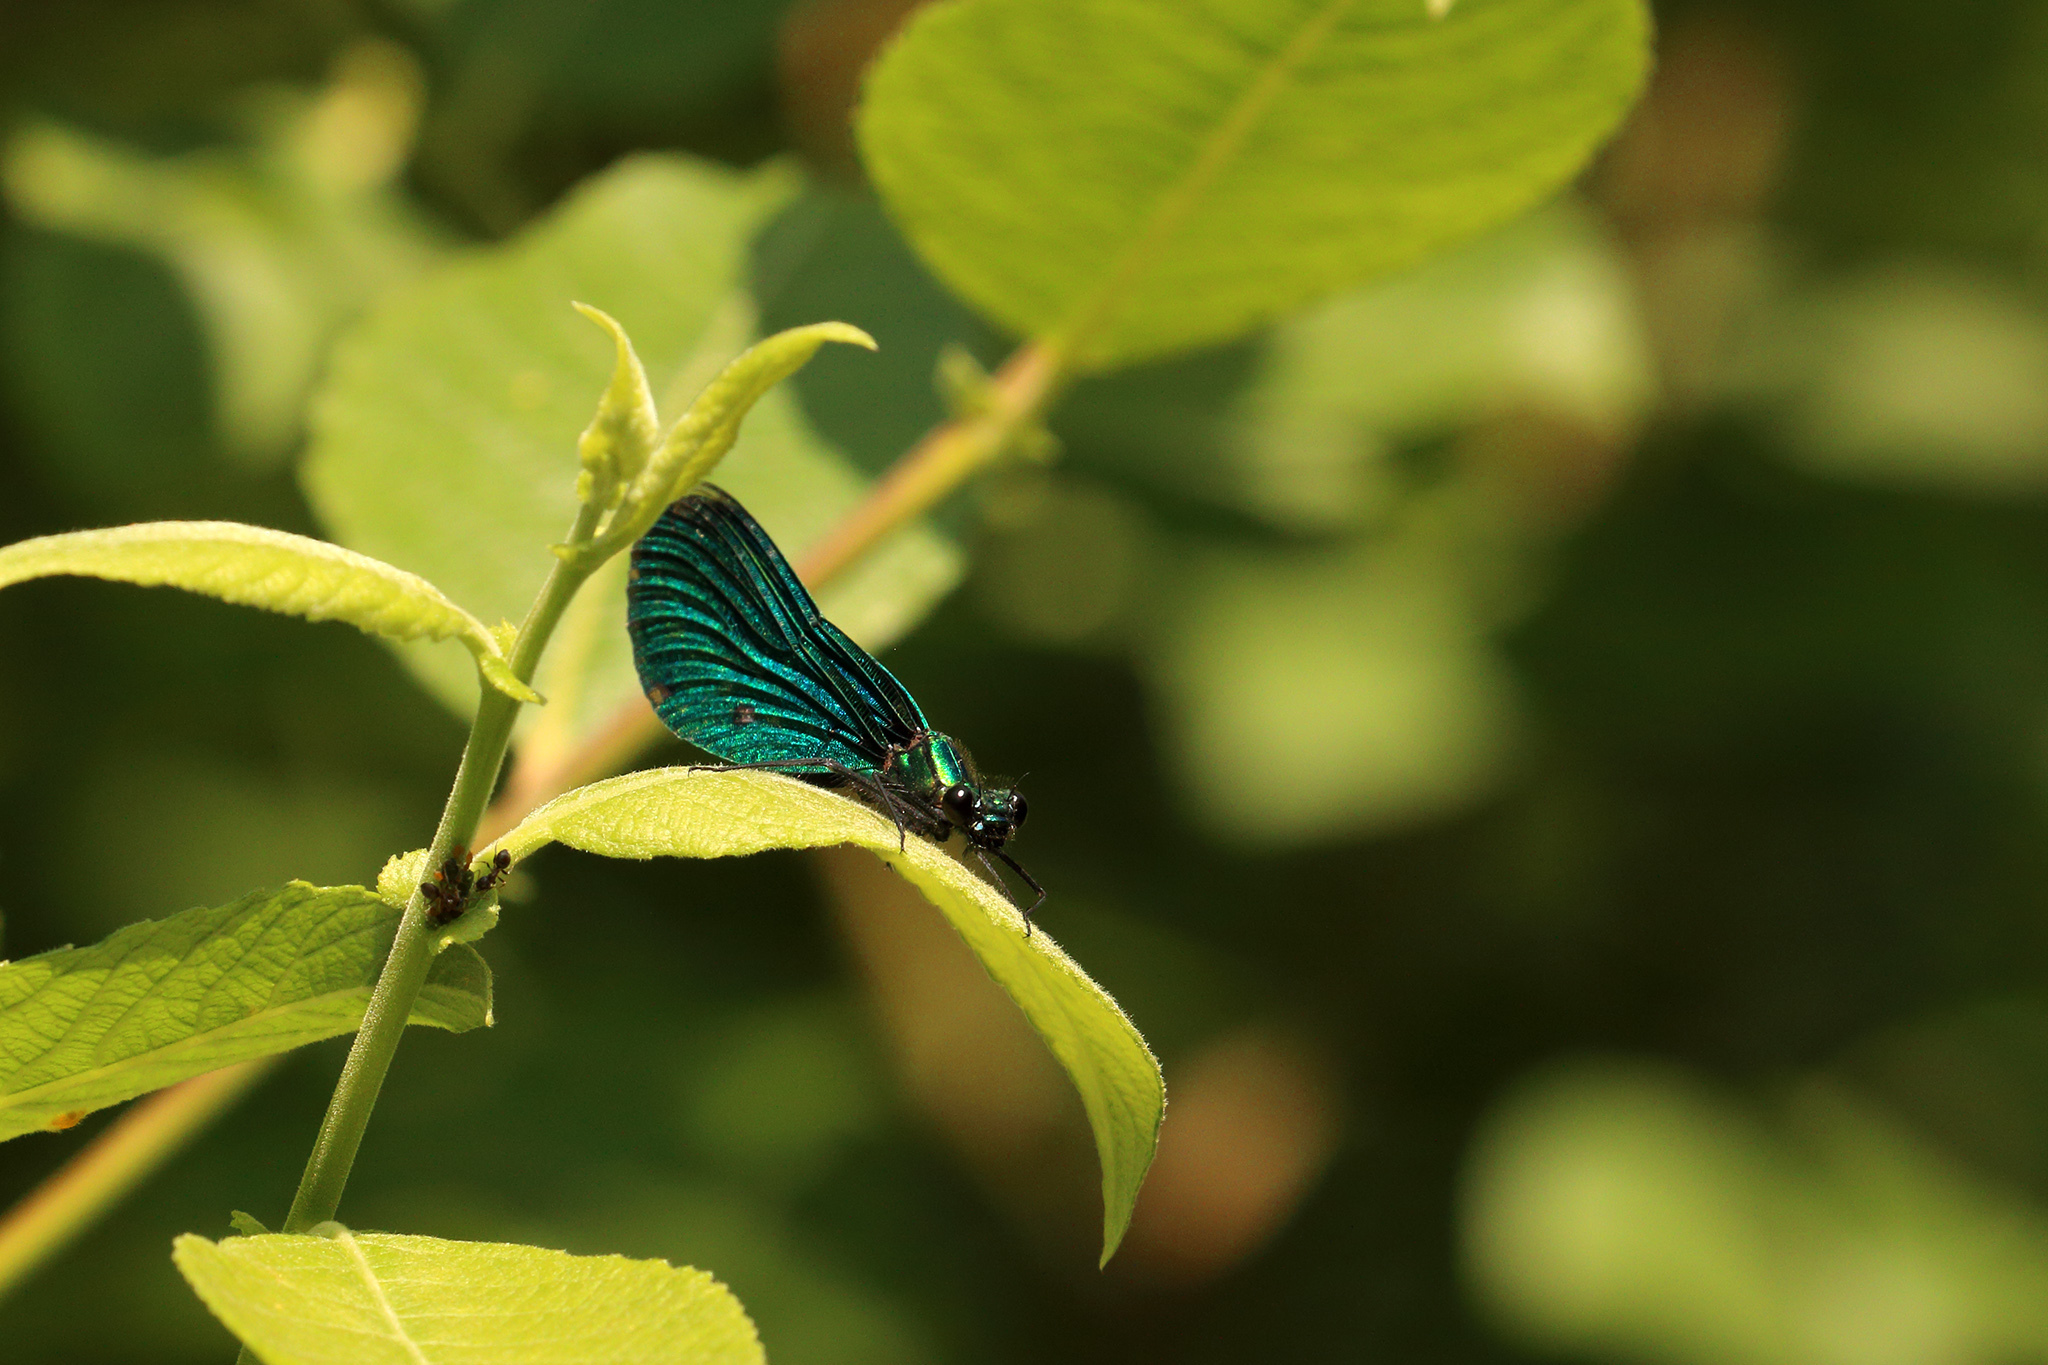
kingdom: Animalia
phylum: Arthropoda
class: Insecta
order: Odonata
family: Calopterygidae
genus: Calopteryx
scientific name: Calopteryx virgo
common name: Beautiful demoiselle
